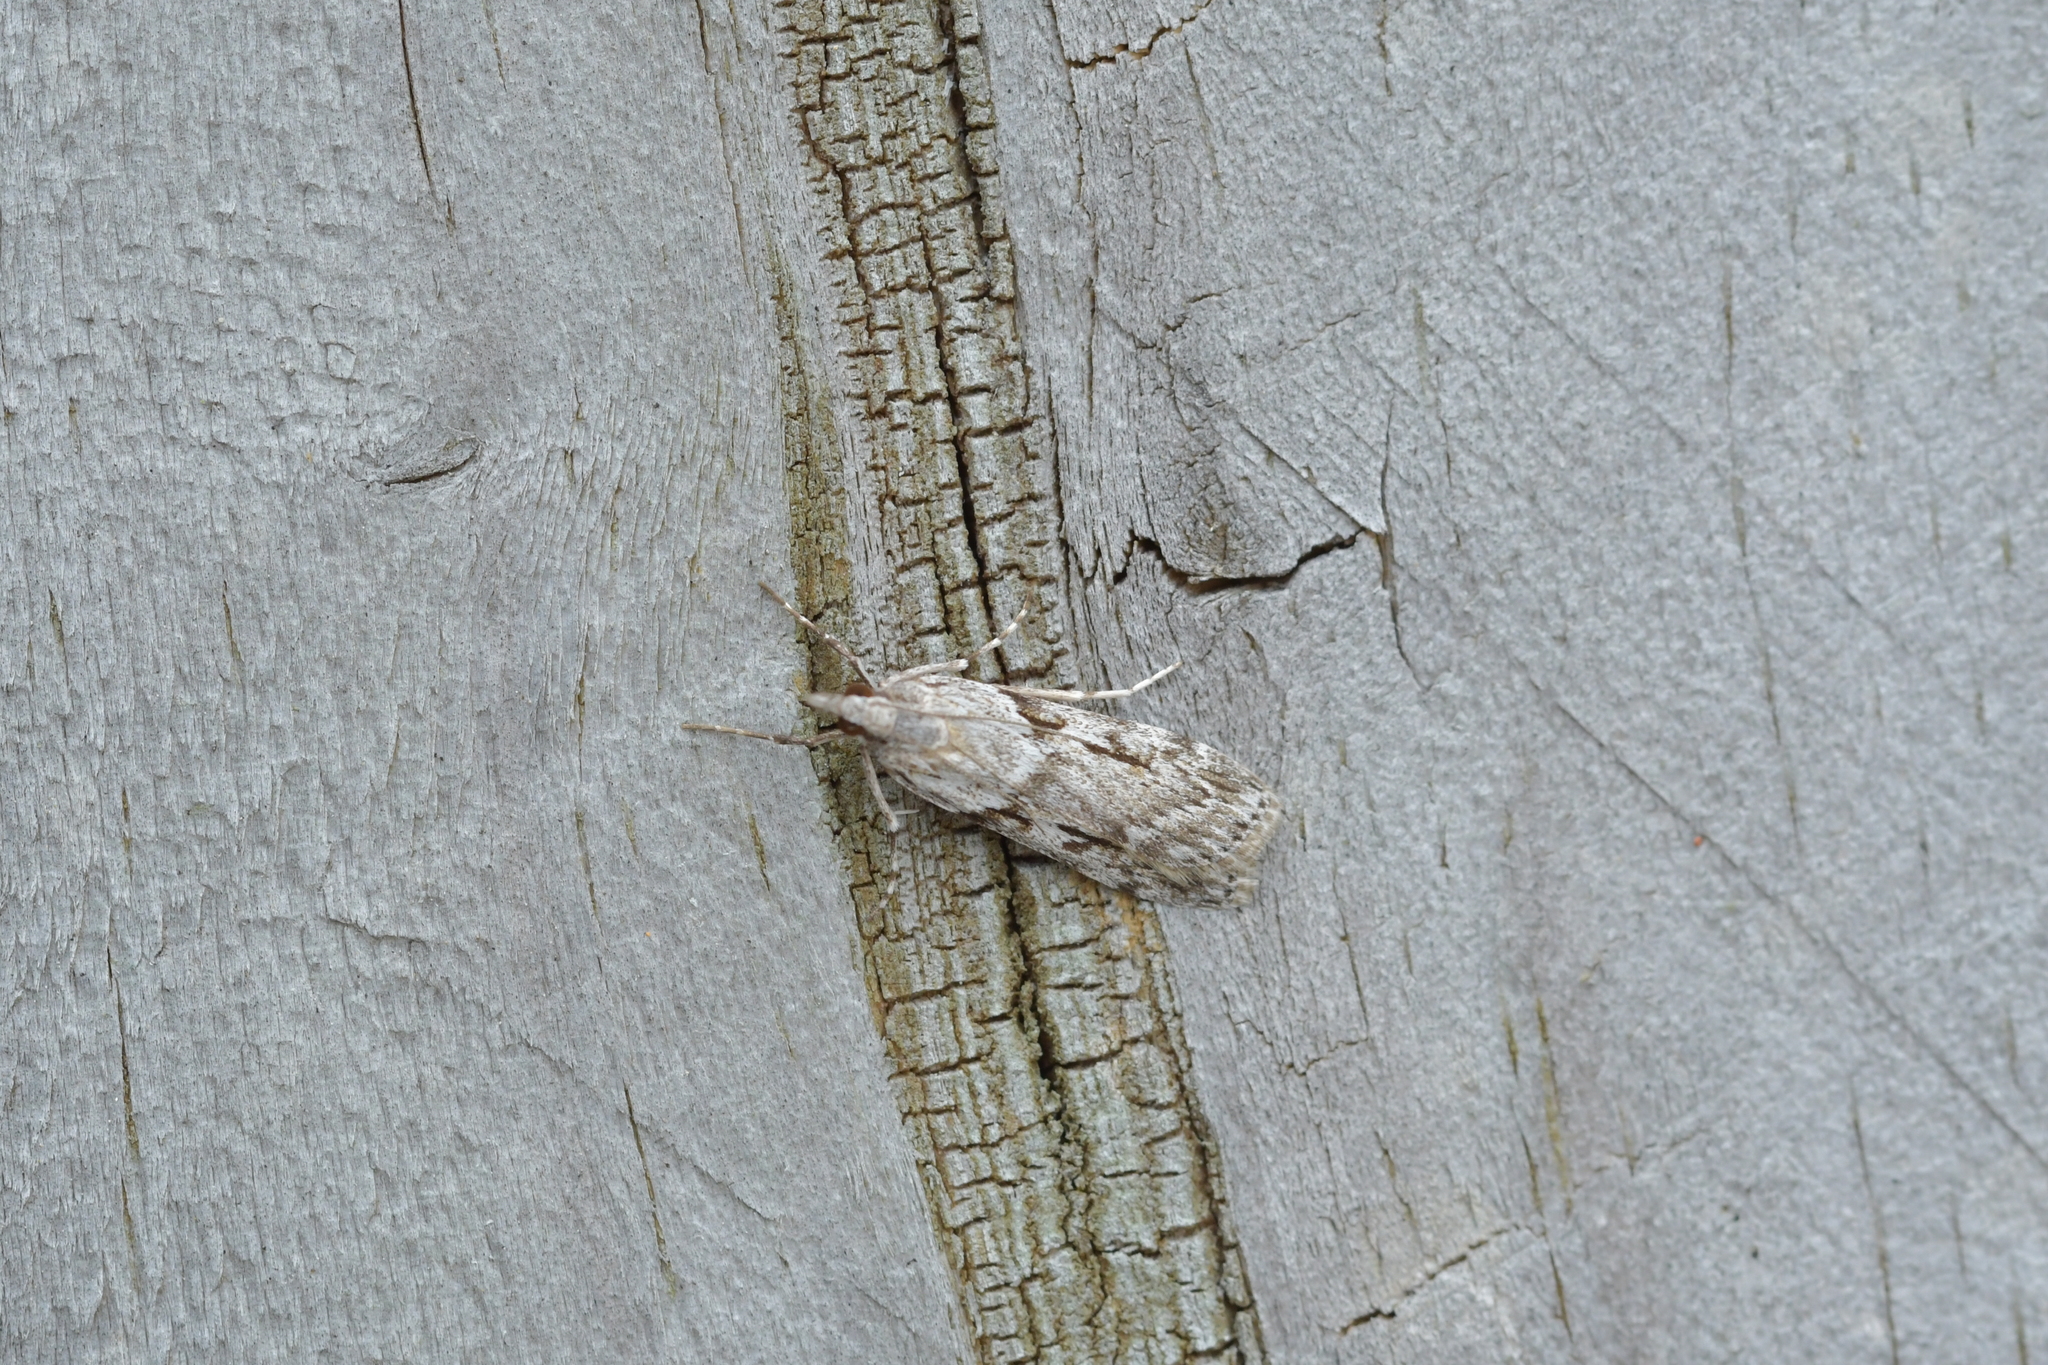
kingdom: Animalia
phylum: Arthropoda
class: Insecta
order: Lepidoptera
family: Crambidae
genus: Scoparia
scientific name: Scoparia halopis
